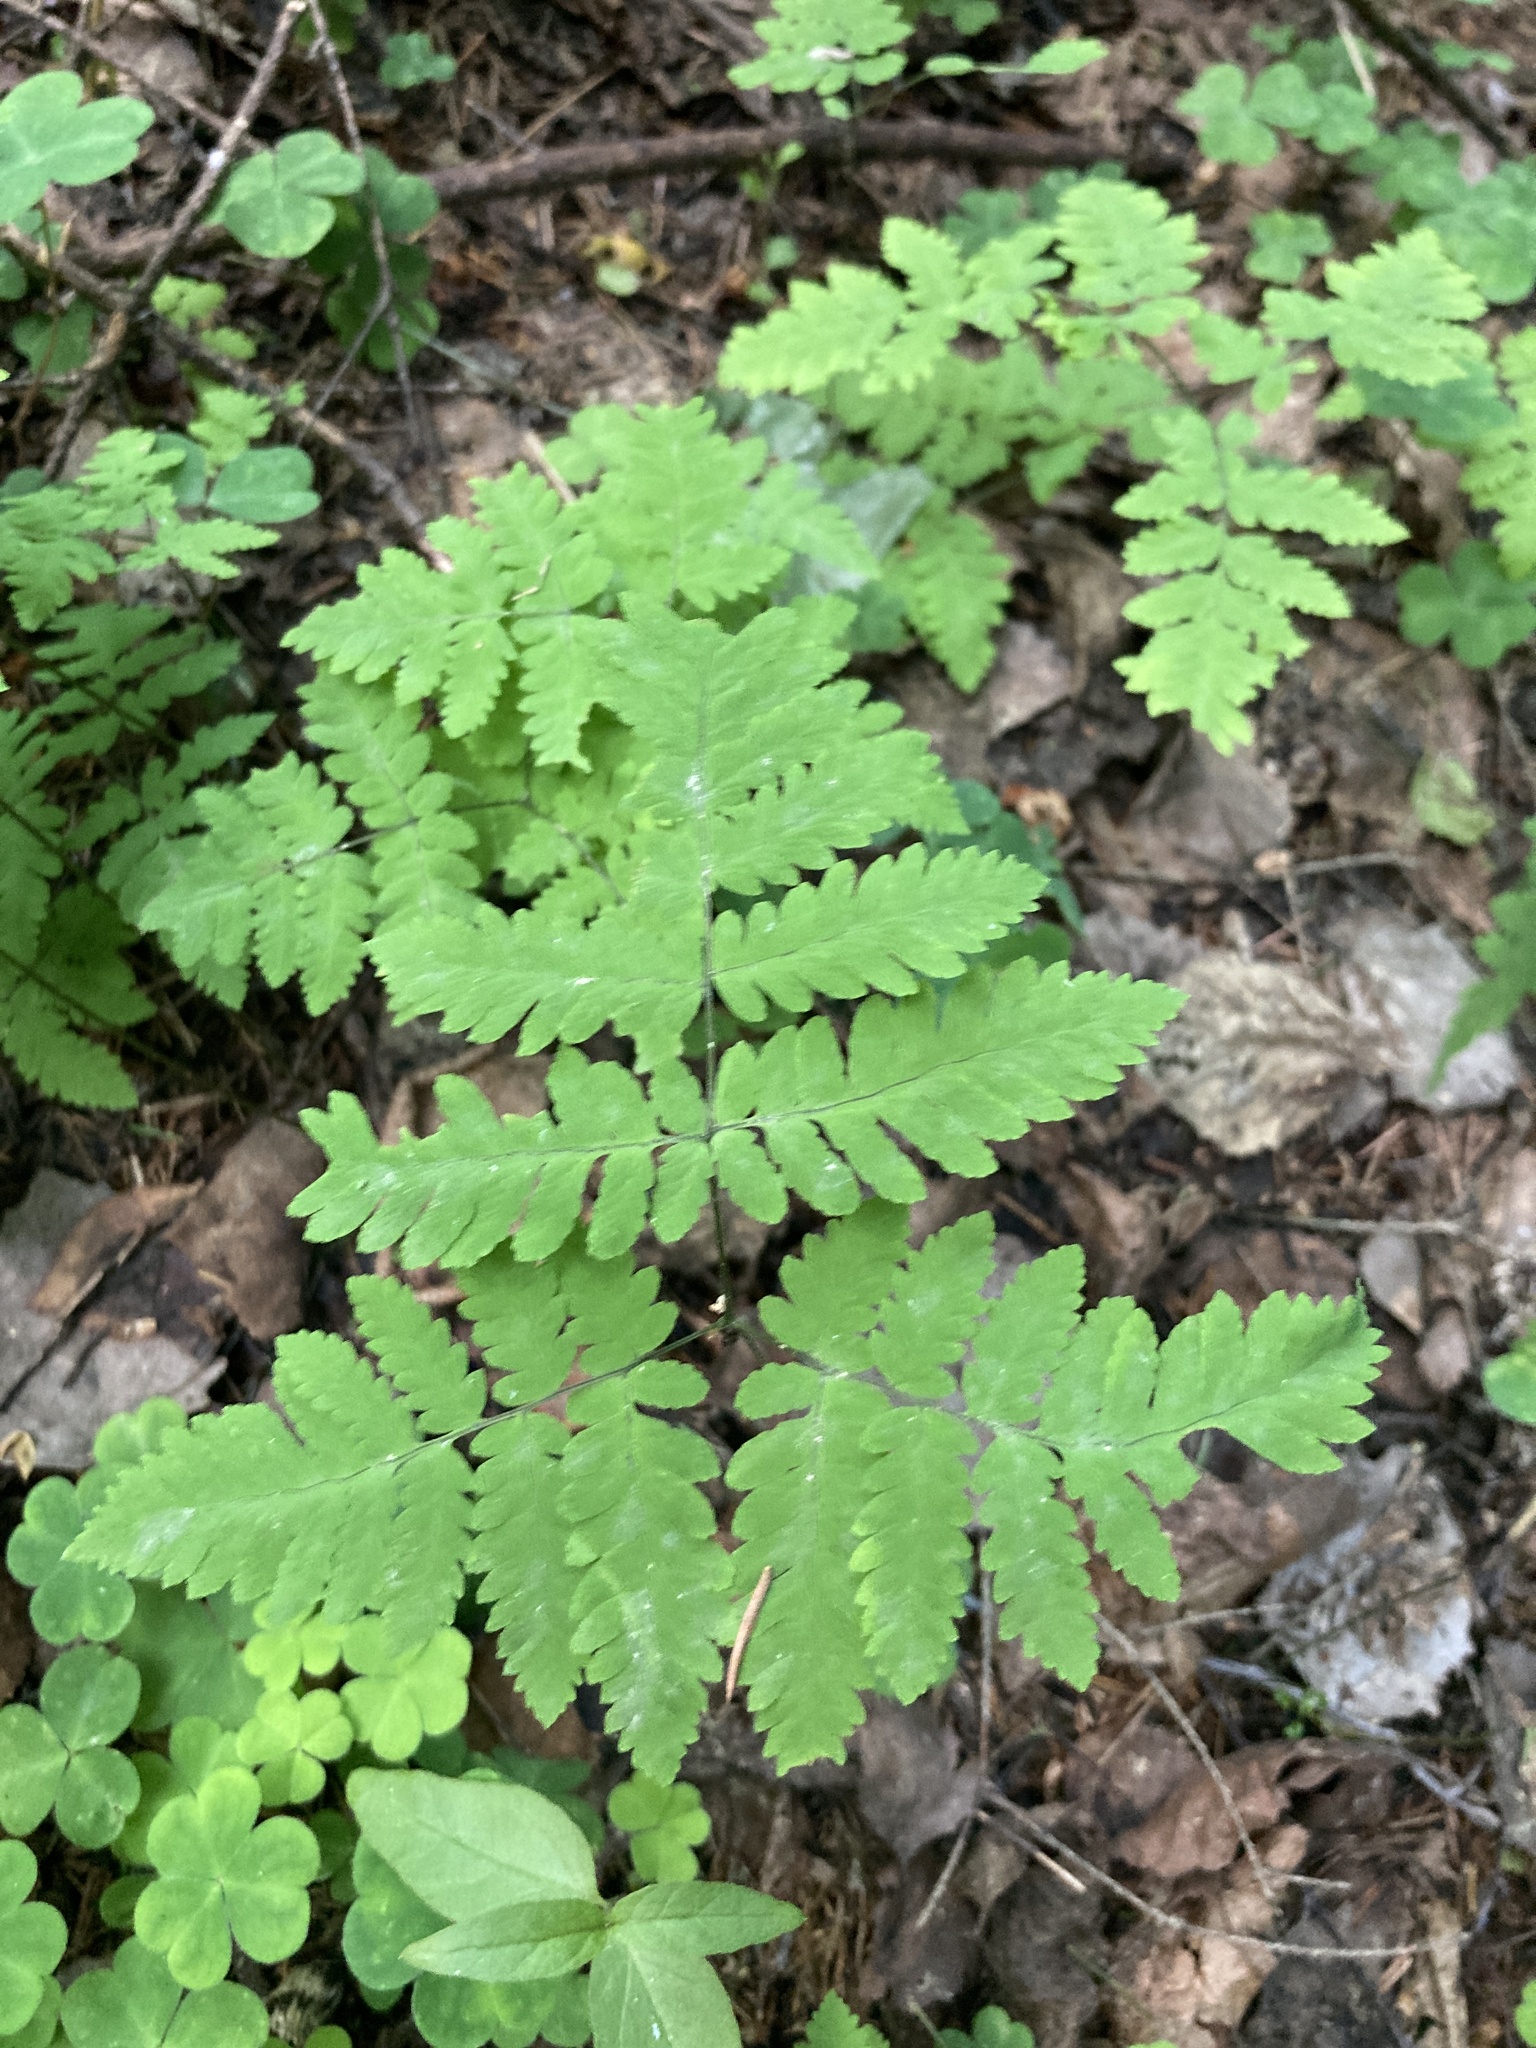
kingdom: Plantae
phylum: Tracheophyta
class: Polypodiopsida
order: Polypodiales
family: Cystopteridaceae
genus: Gymnocarpium
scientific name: Gymnocarpium dryopteris
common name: Oak fern
